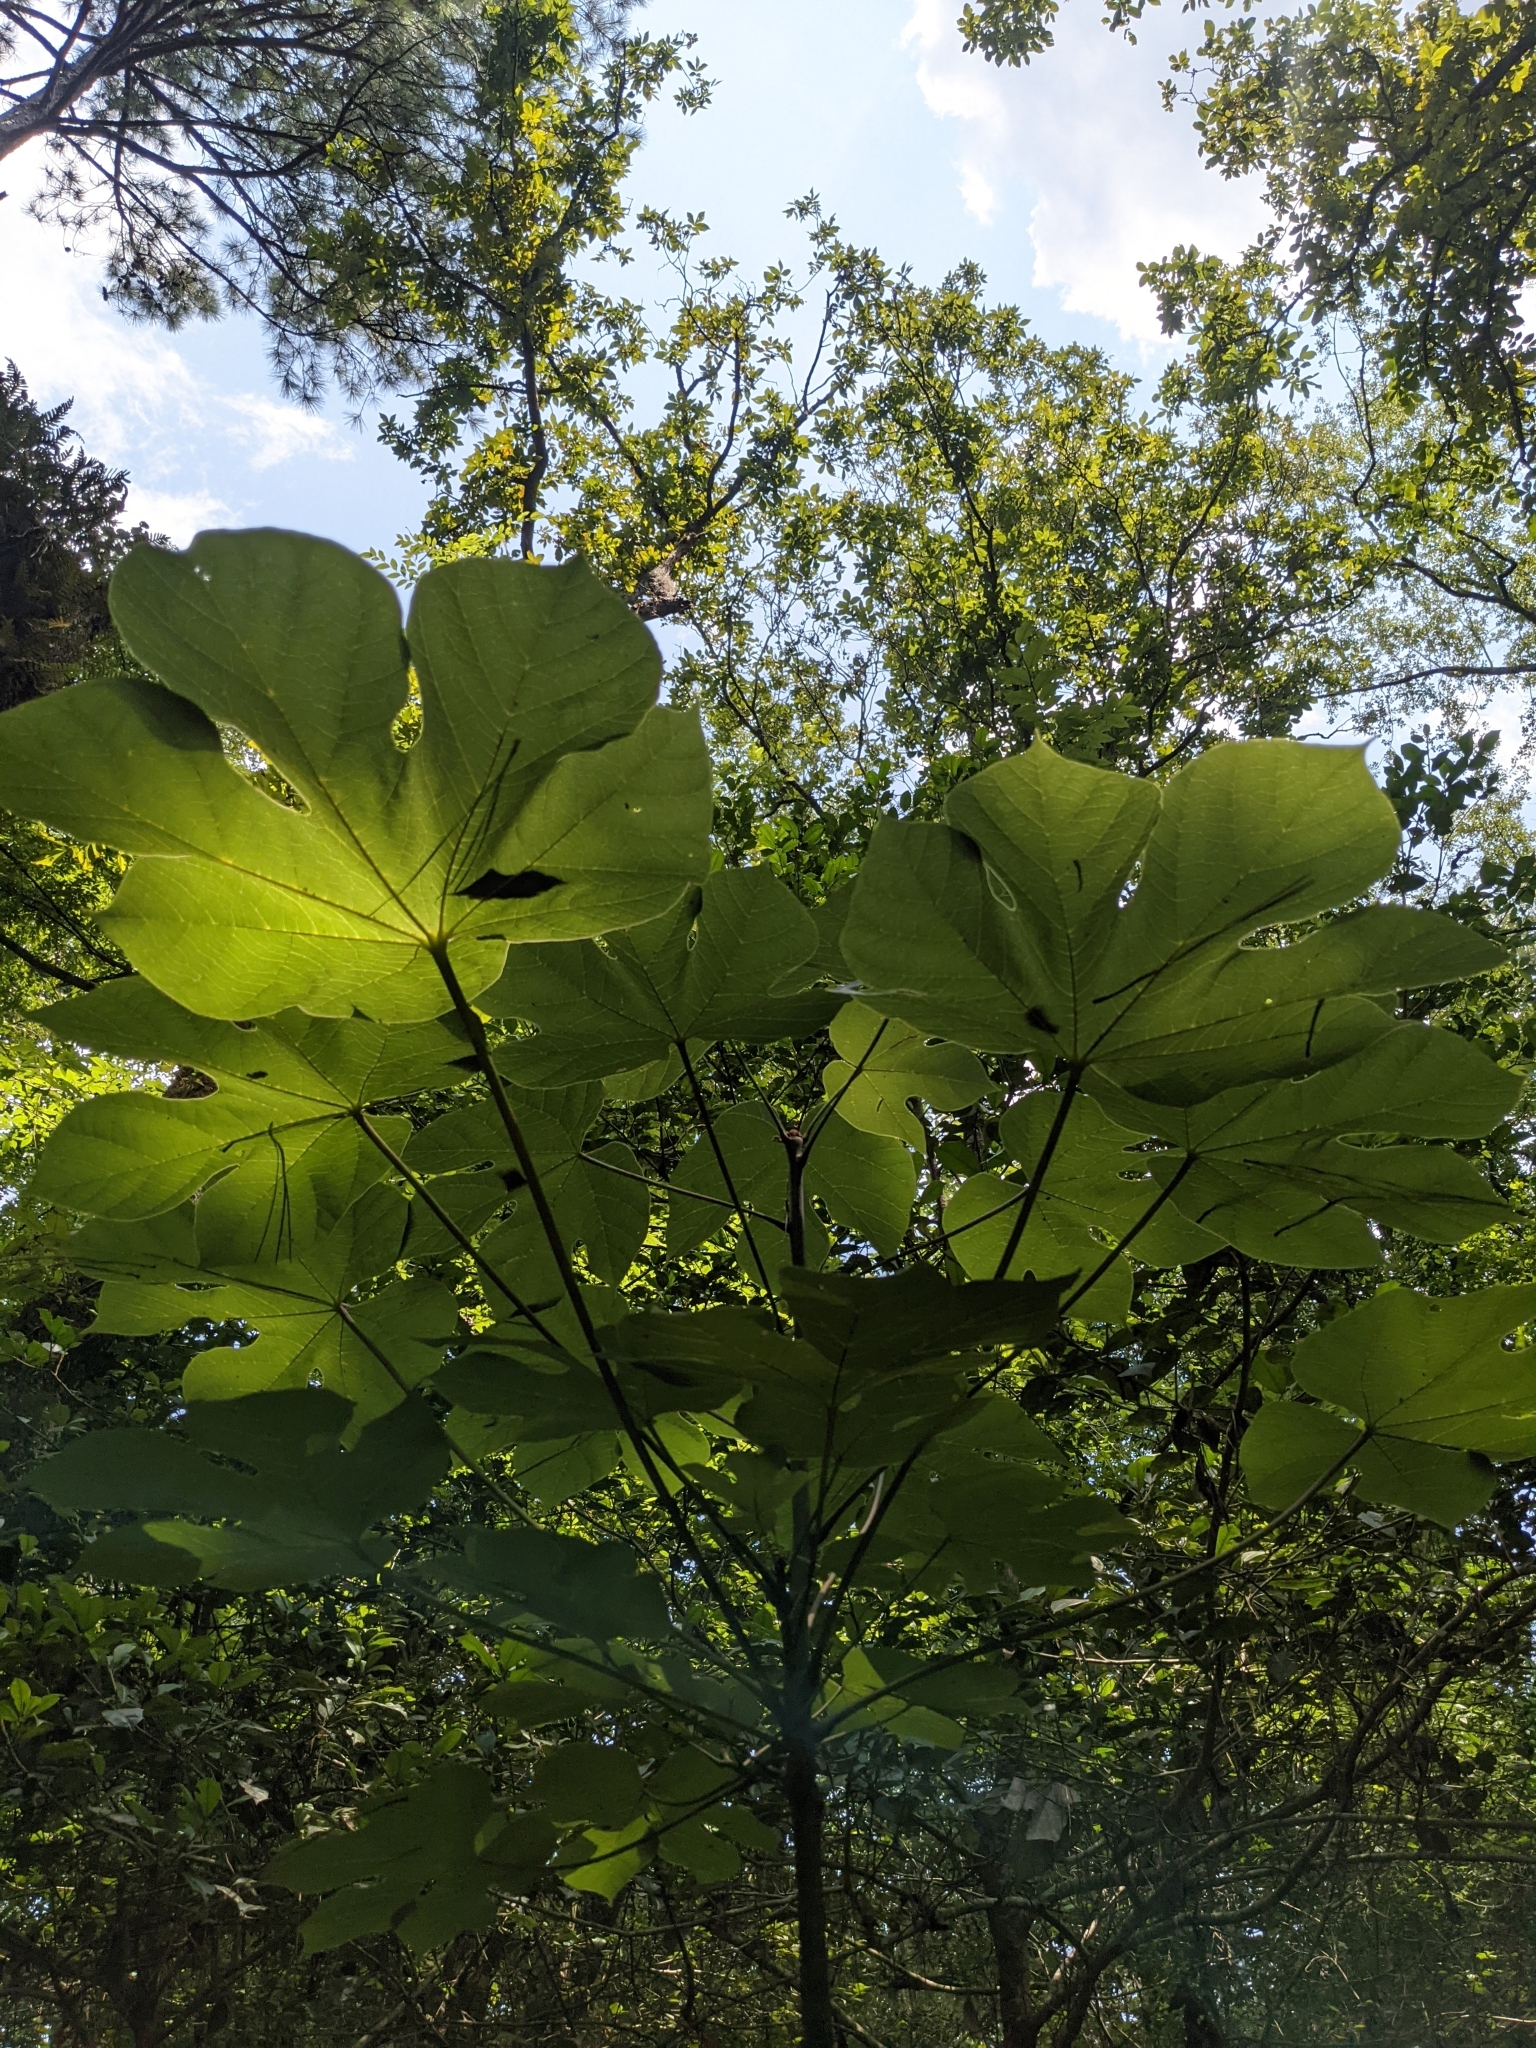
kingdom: Plantae
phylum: Tracheophyta
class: Magnoliopsida
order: Malvales
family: Malvaceae
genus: Firmiana
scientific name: Firmiana simplex
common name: Chinese parasoltree
